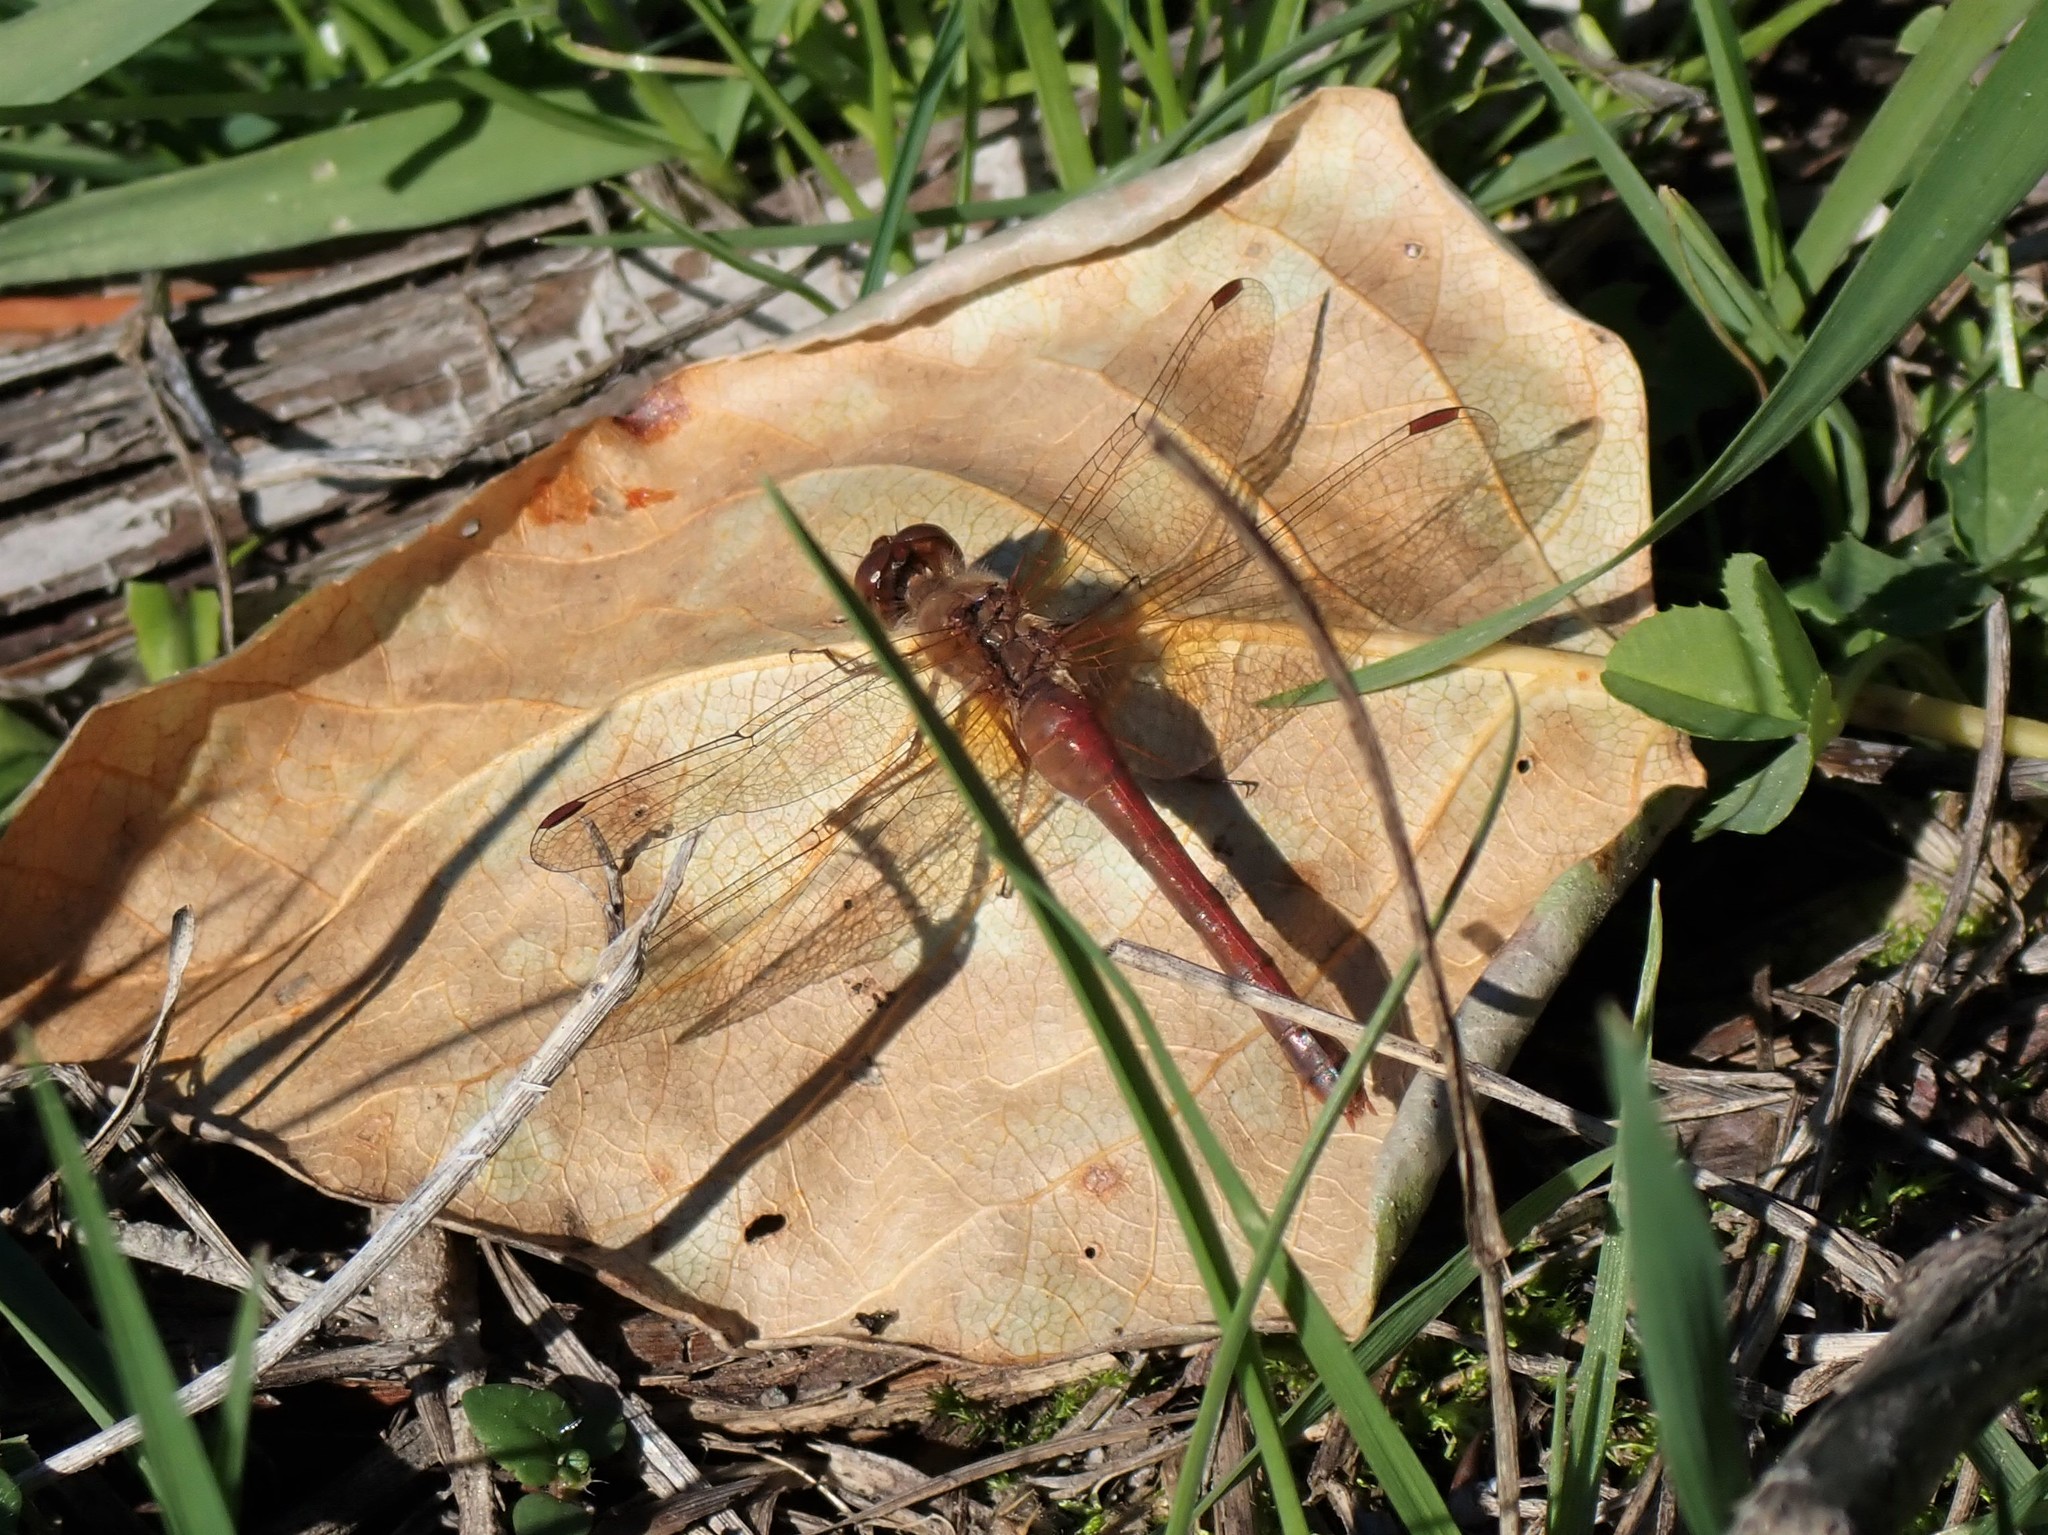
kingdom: Animalia
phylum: Arthropoda
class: Insecta
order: Odonata
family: Libellulidae
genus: Sympetrum
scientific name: Sympetrum vicinum
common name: Autumn meadowhawk
